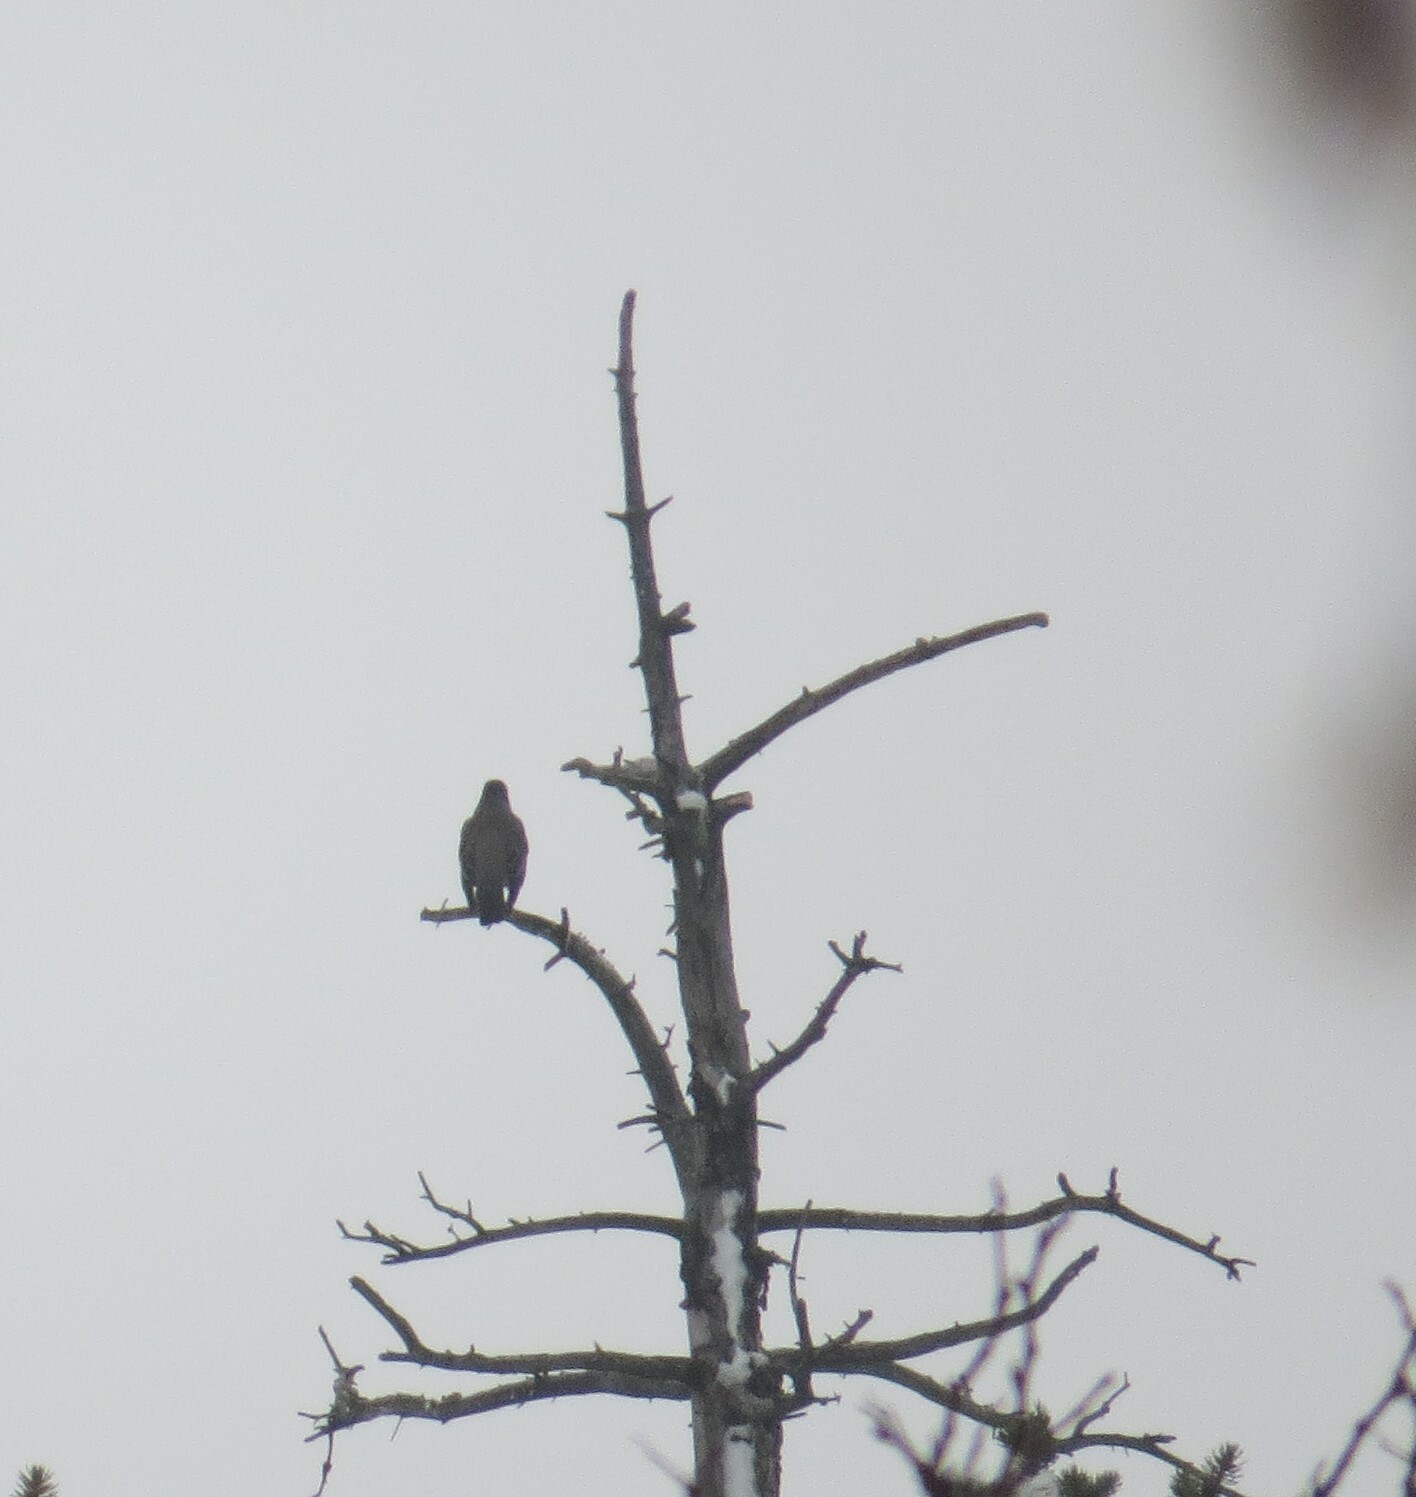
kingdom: Animalia
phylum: Chordata
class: Aves
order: Passeriformes
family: Turdidae
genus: Turdus
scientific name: Turdus migratorius
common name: American robin
